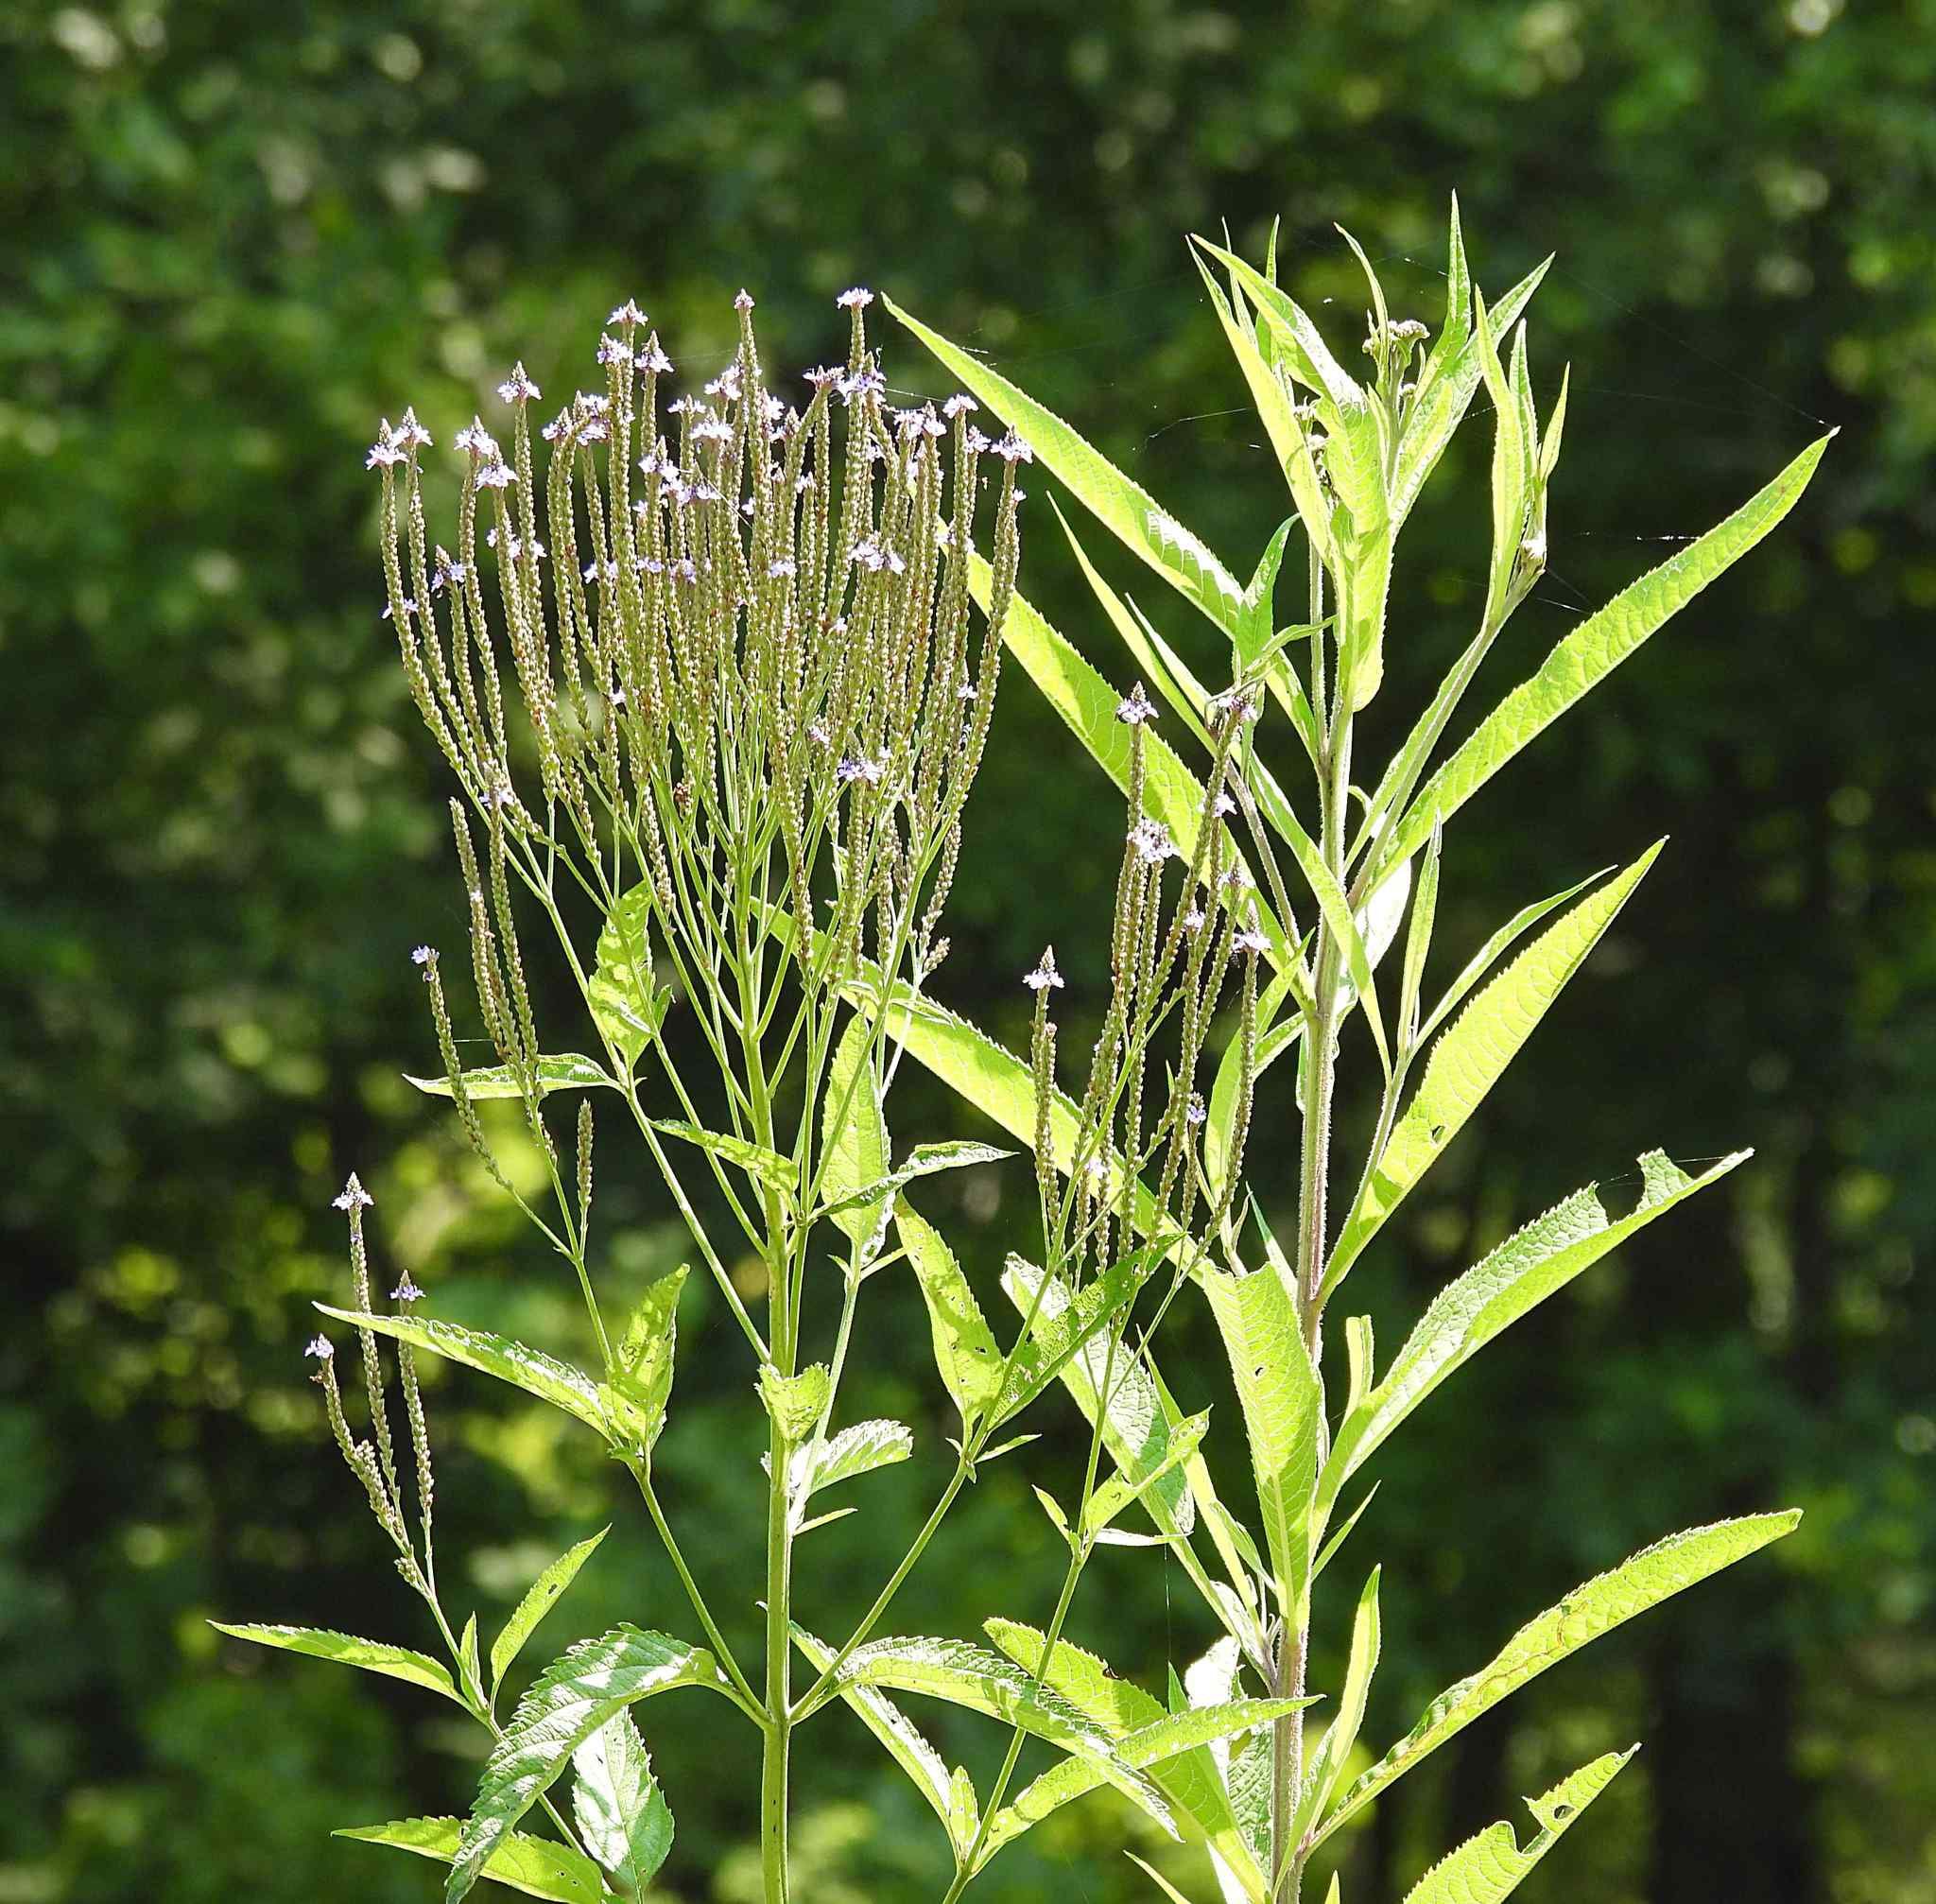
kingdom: Plantae
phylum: Tracheophyta
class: Magnoliopsida
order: Lamiales
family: Verbenaceae
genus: Verbena
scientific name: Verbena hastata
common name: American blue vervain
